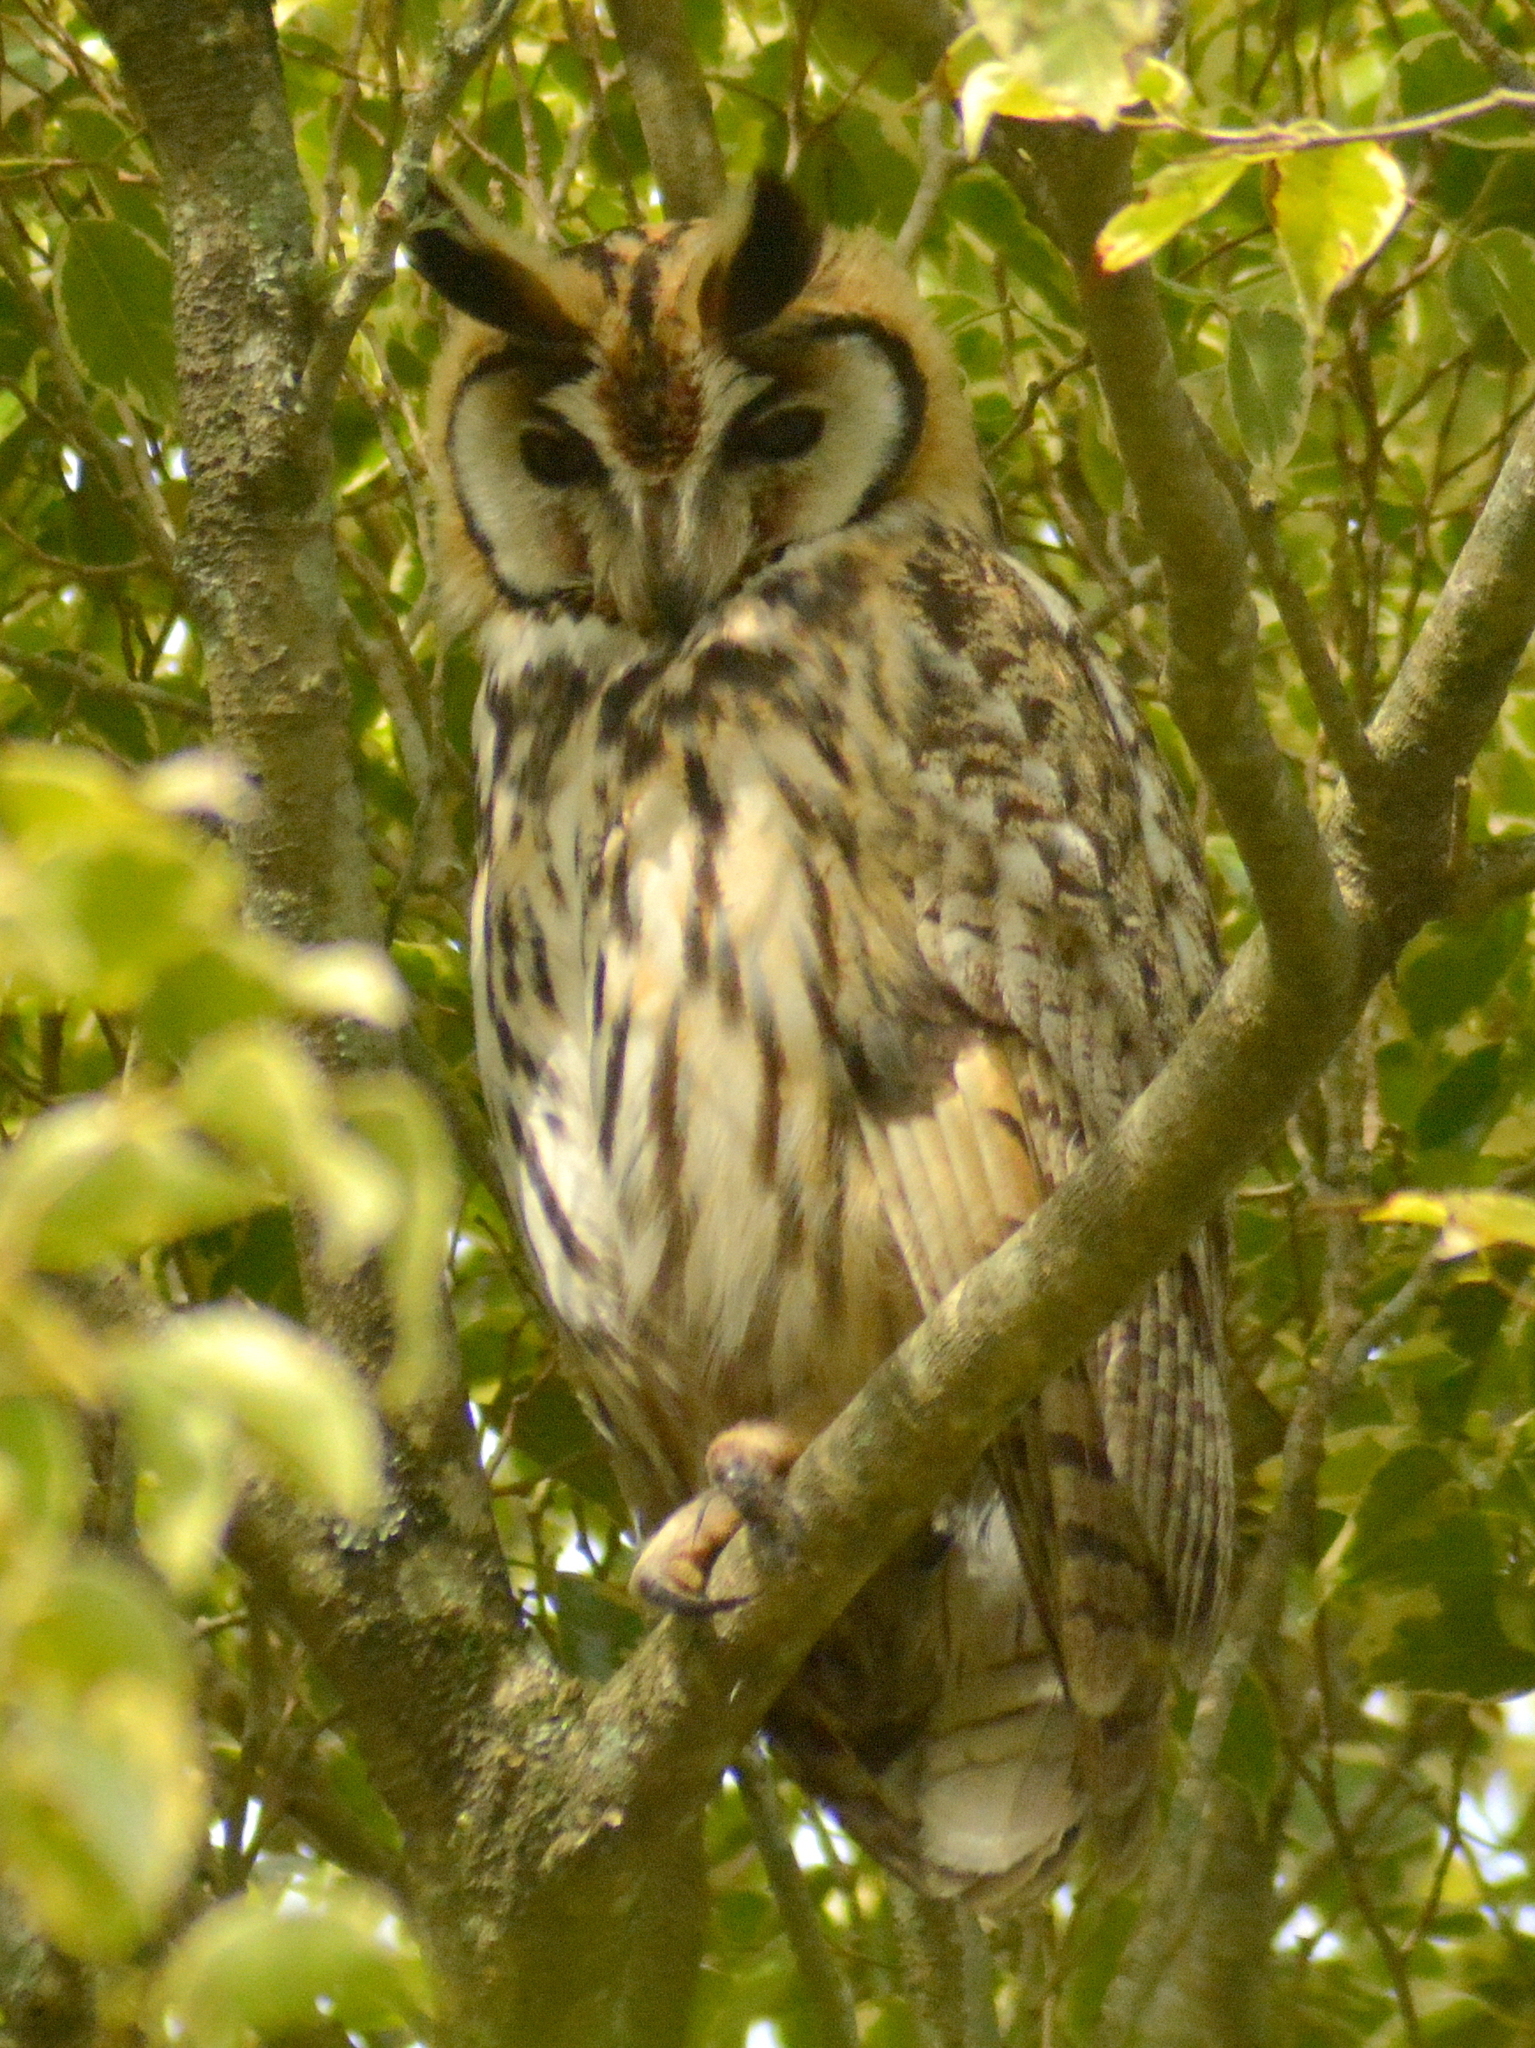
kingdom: Animalia
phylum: Chordata
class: Aves
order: Strigiformes
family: Strigidae
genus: Pseudoscops
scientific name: Pseudoscops clamator
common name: Striped owl
